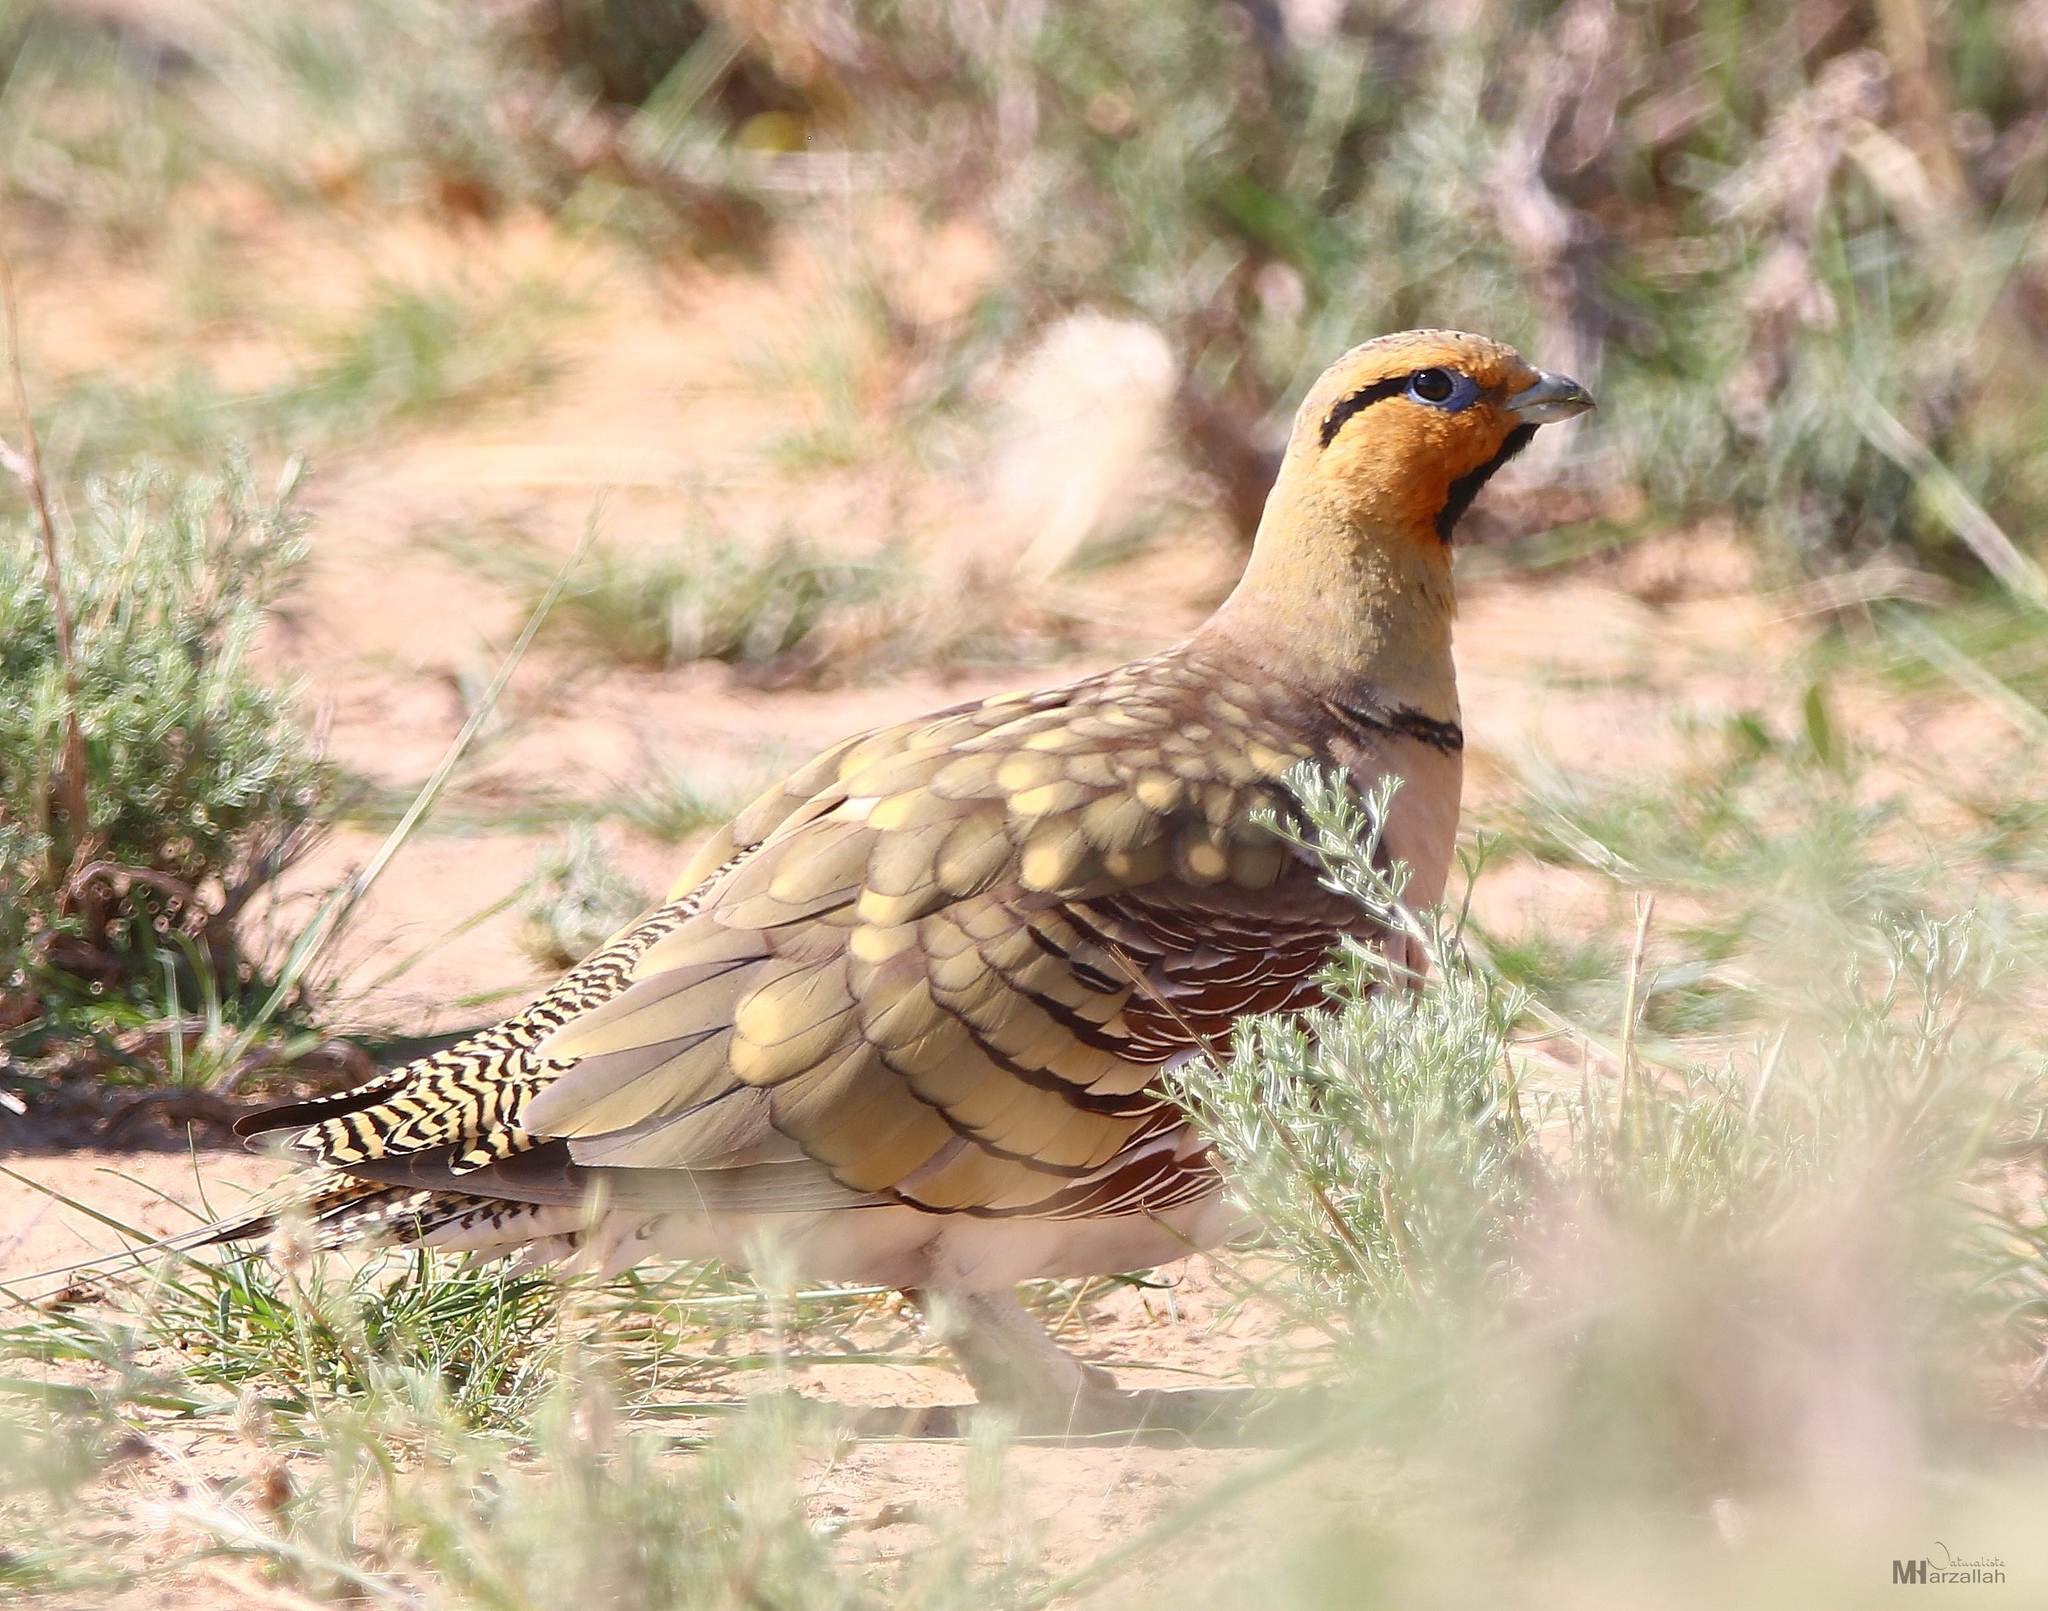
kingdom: Animalia
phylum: Chordata
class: Aves
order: Pteroclidiformes
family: Pteroclididae
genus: Pterocles
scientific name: Pterocles alchata
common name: Pin-tailed sandgrouse
